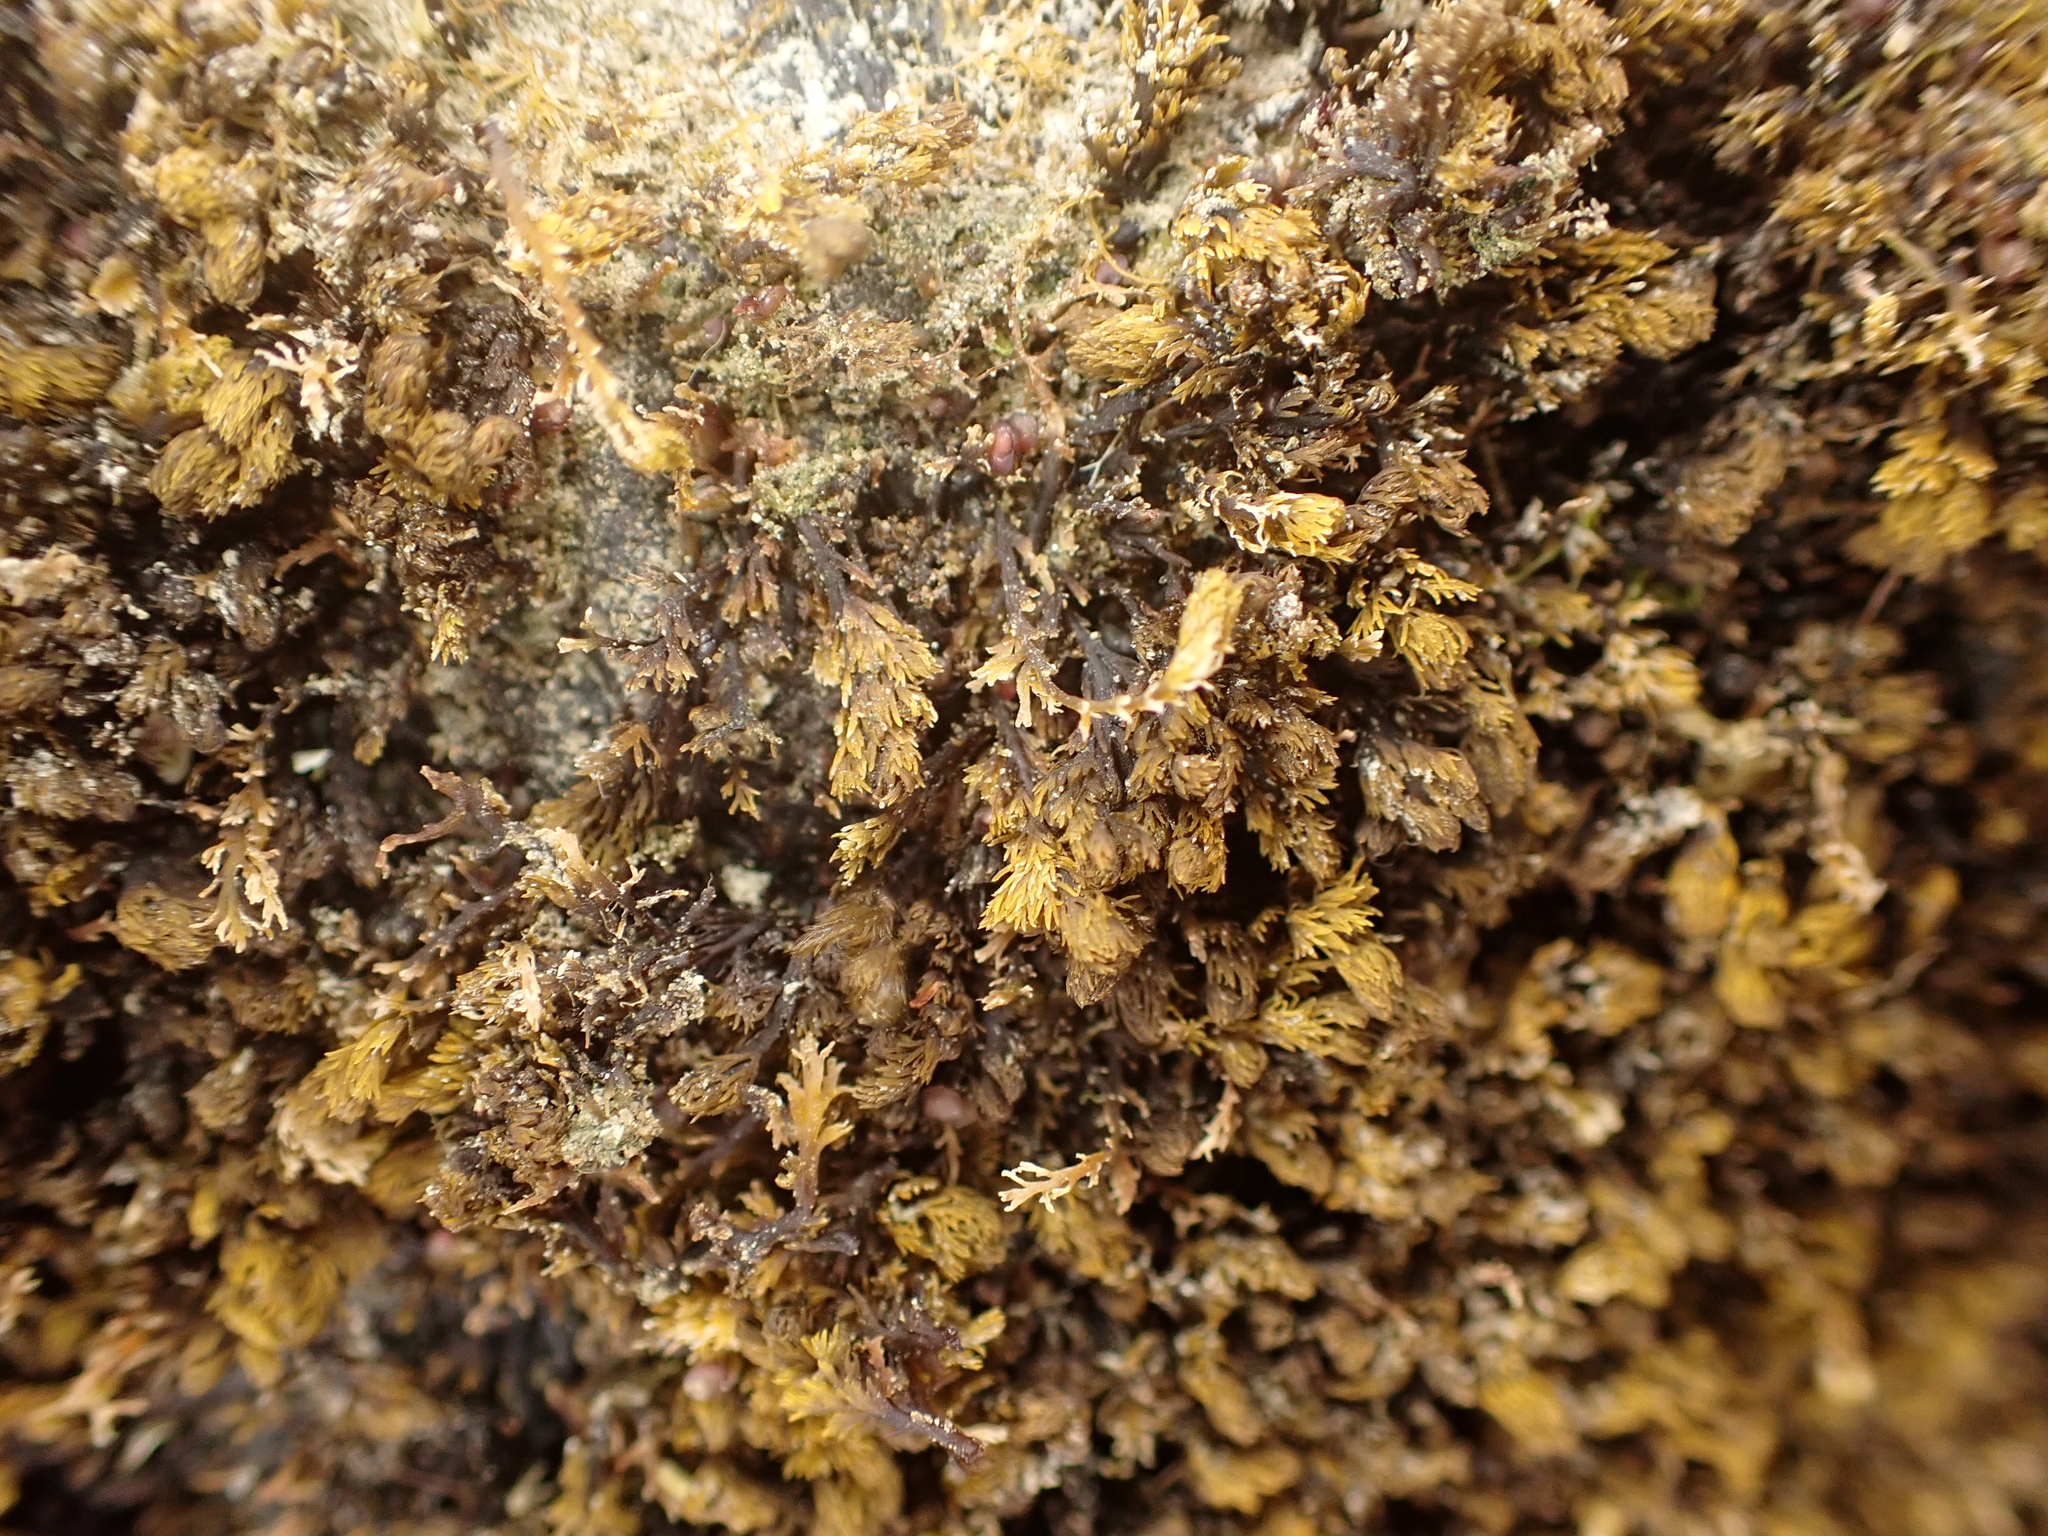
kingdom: Plantae
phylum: Rhodophyta
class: Florideophyceae
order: Ceramiales
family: Rhodomelaceae
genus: Bostrychia
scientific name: Bostrychia arbuscula
